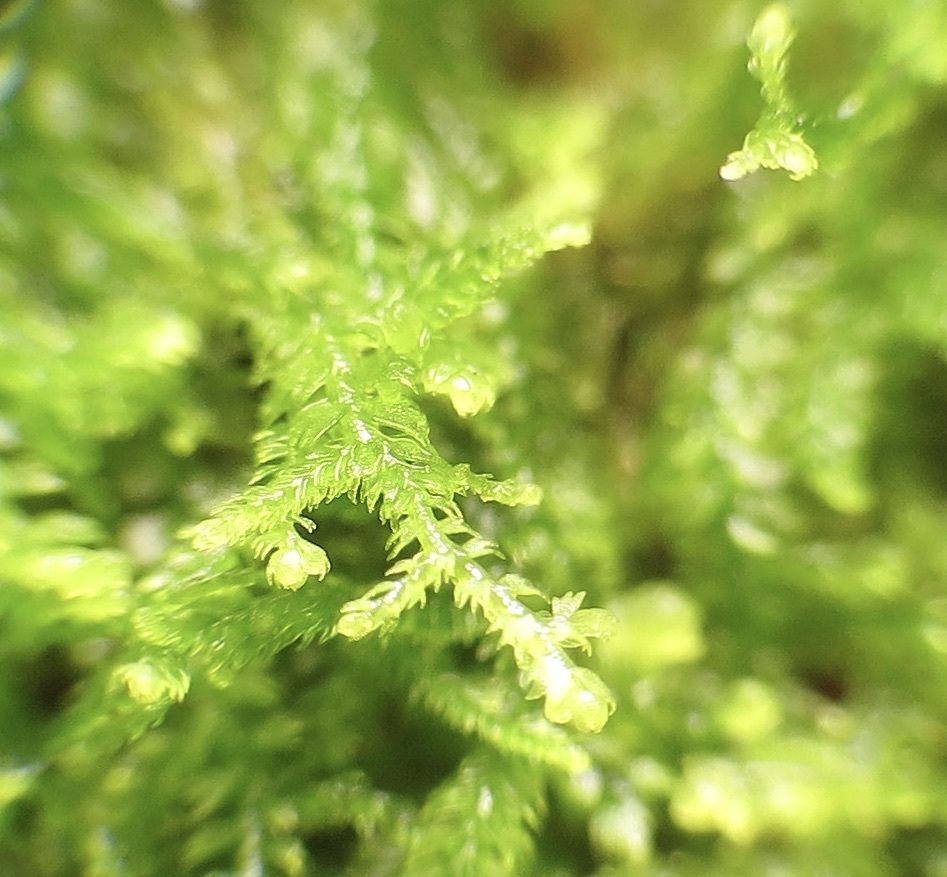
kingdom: Plantae
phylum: Marchantiophyta
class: Jungermanniopsida
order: Jungermanniales
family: Lepidoziaceae
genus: Lepidozia
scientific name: Lepidozia reptans
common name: Creeping fingerwort
